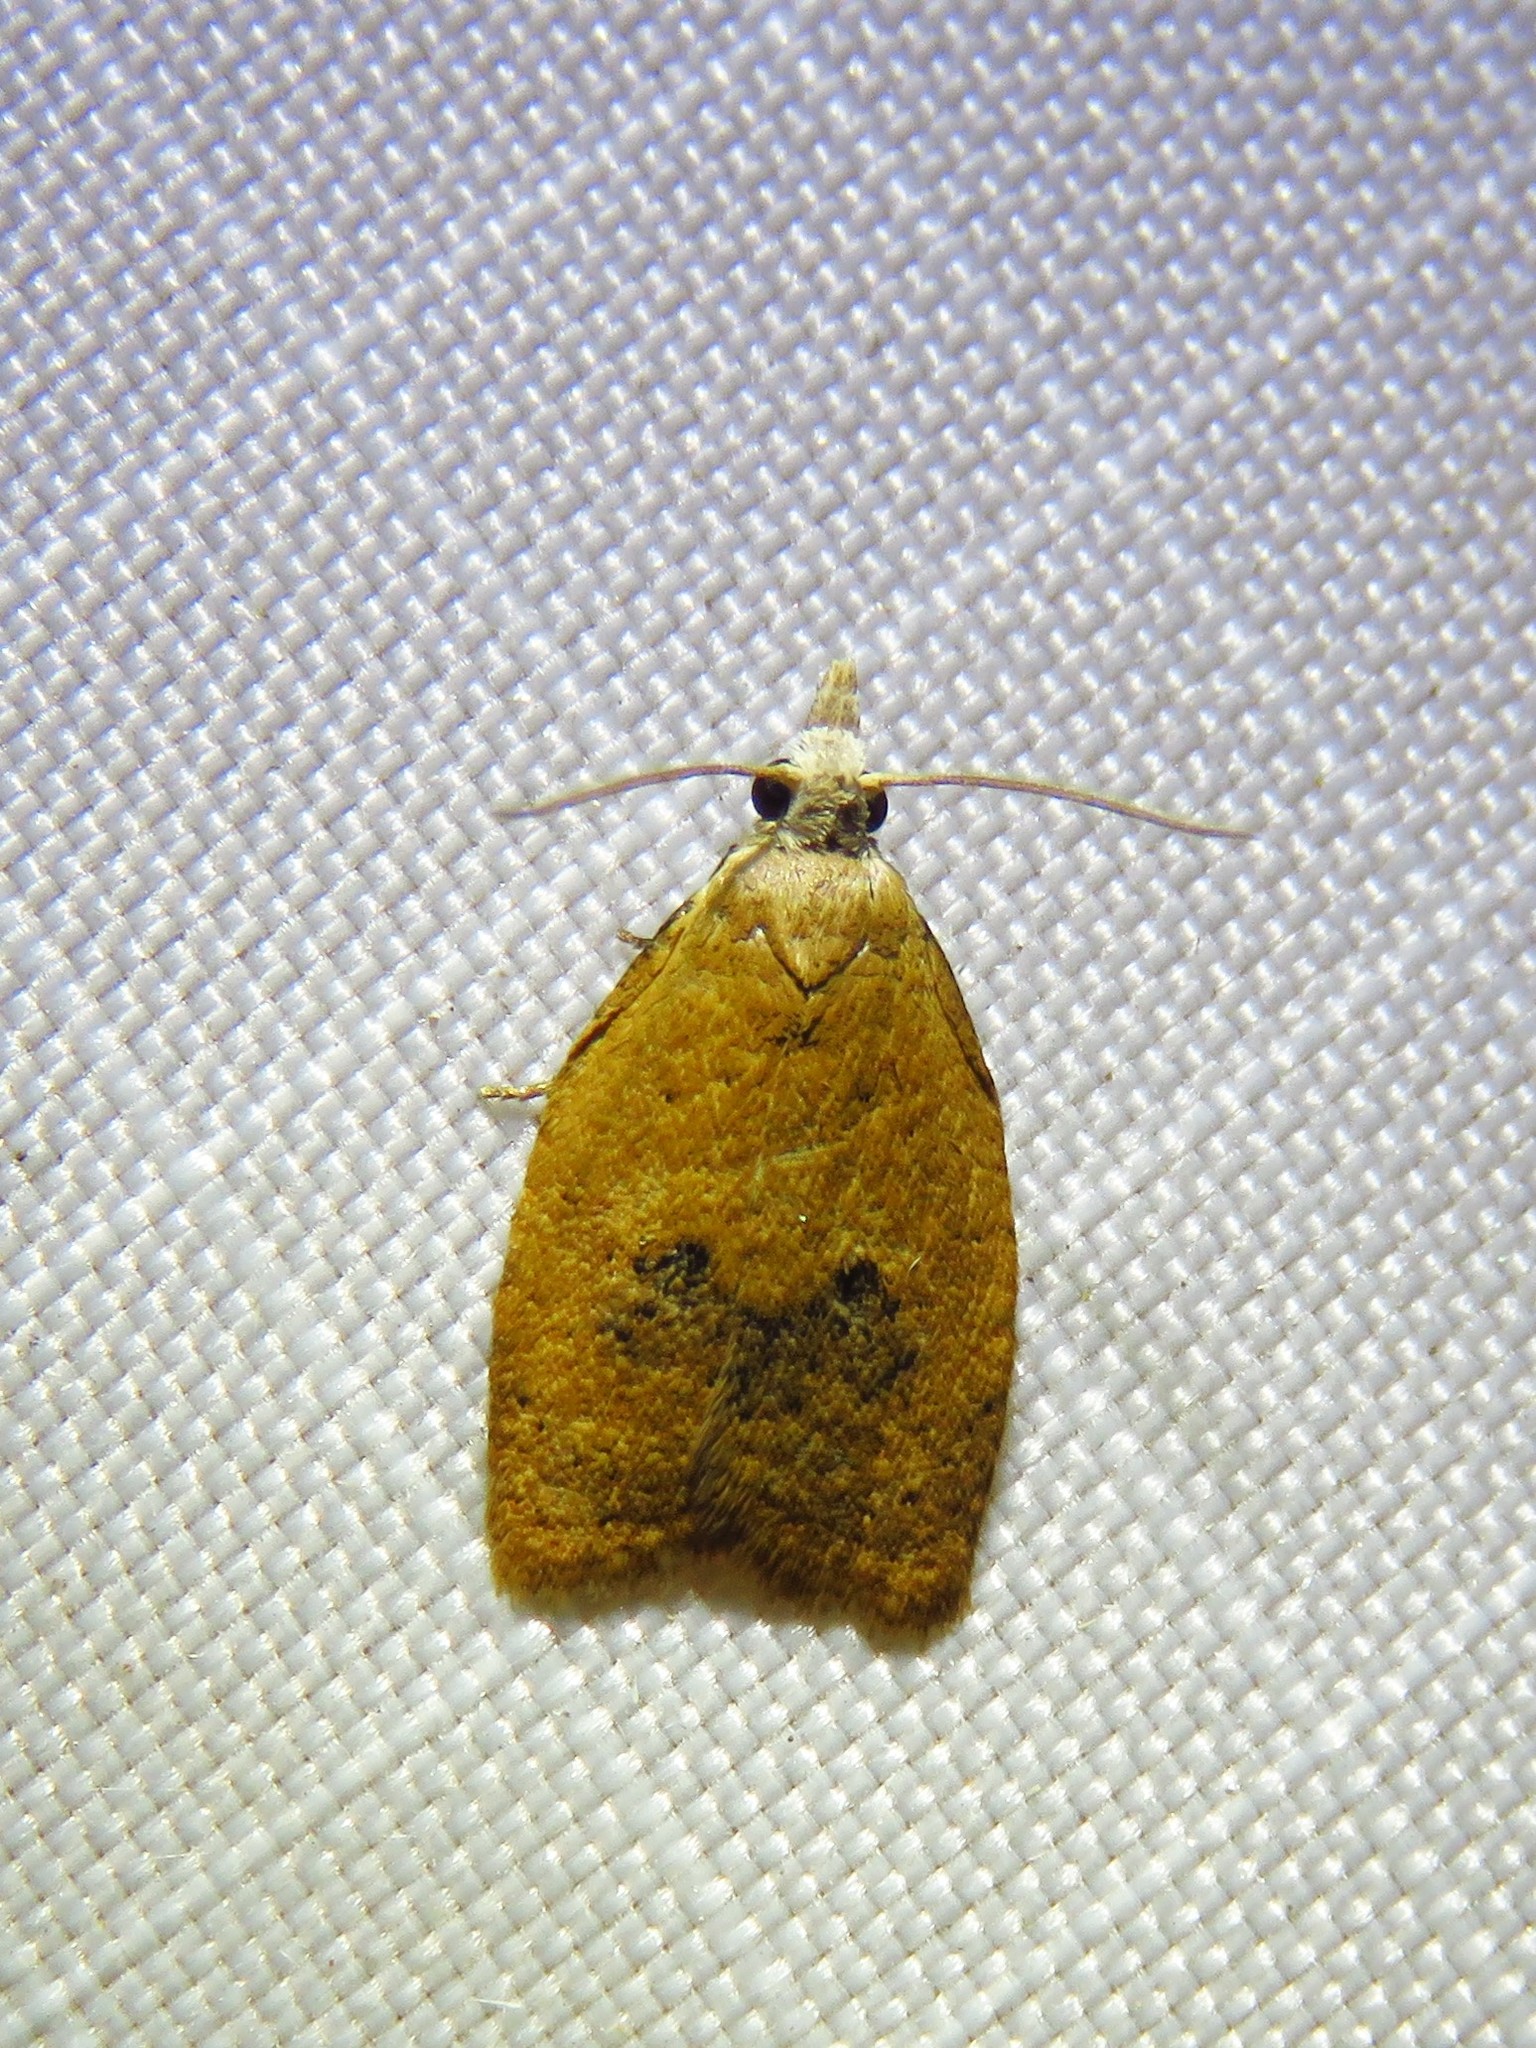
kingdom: Animalia
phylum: Arthropoda
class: Insecta
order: Lepidoptera
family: Tortricidae
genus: Sparganothoides
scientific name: Sparganothoides lentiginosana
